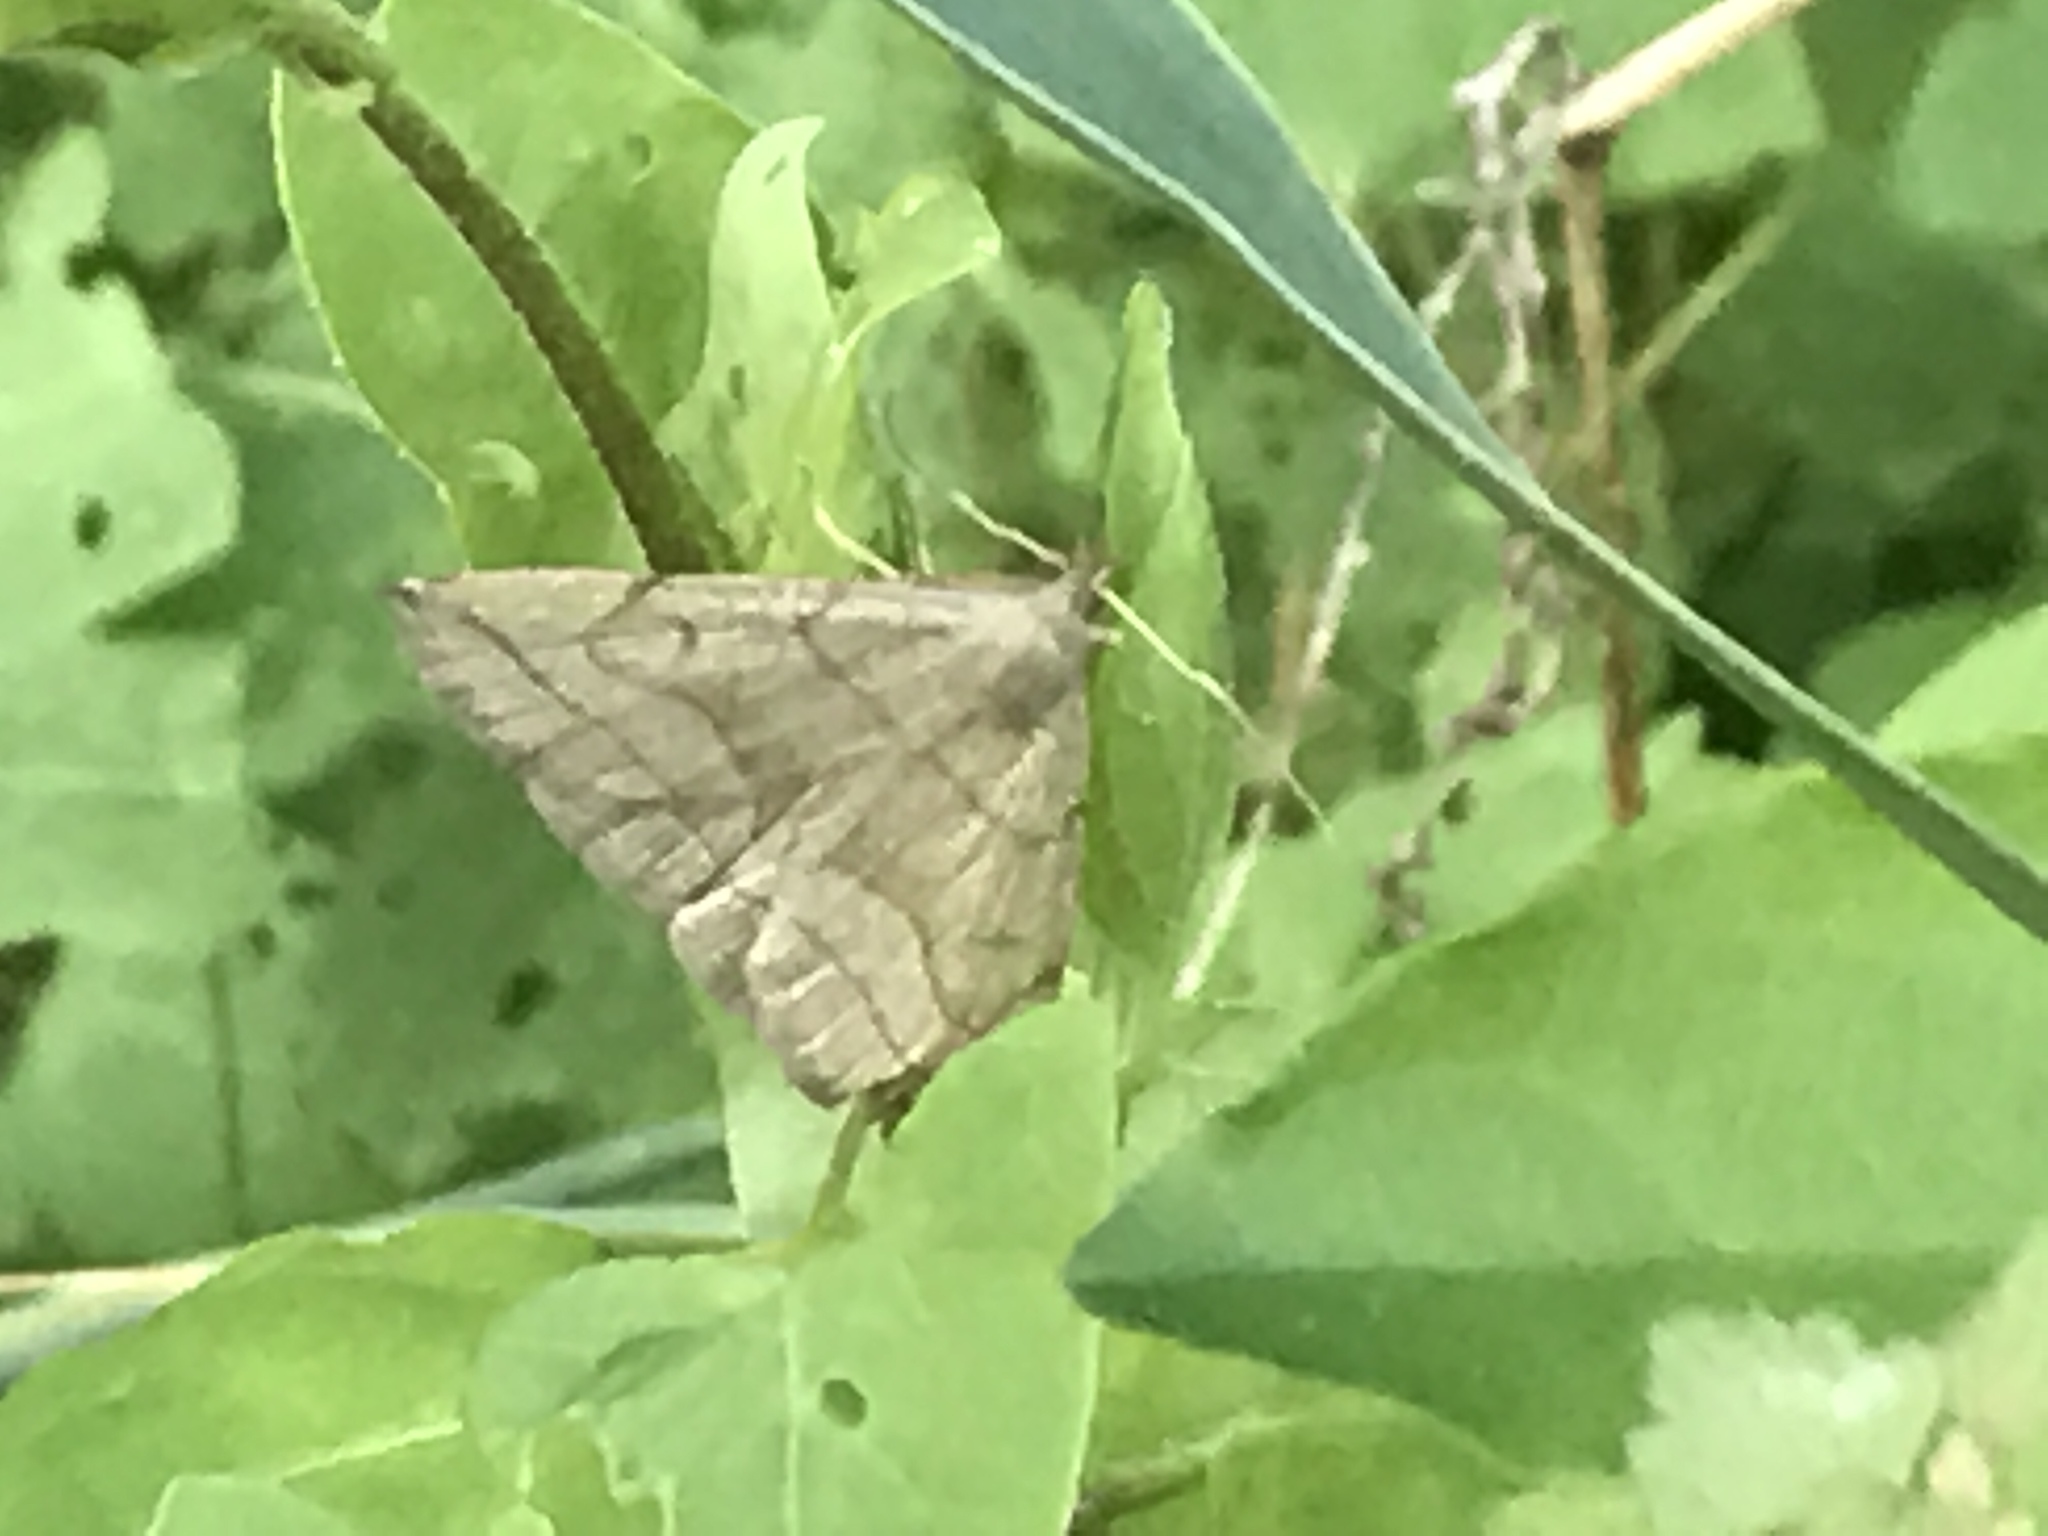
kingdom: Animalia
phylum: Arthropoda
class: Insecta
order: Lepidoptera
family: Erebidae
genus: Zanclognatha
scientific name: Zanclognatha pedipilalis
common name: Grayish fan-foot
